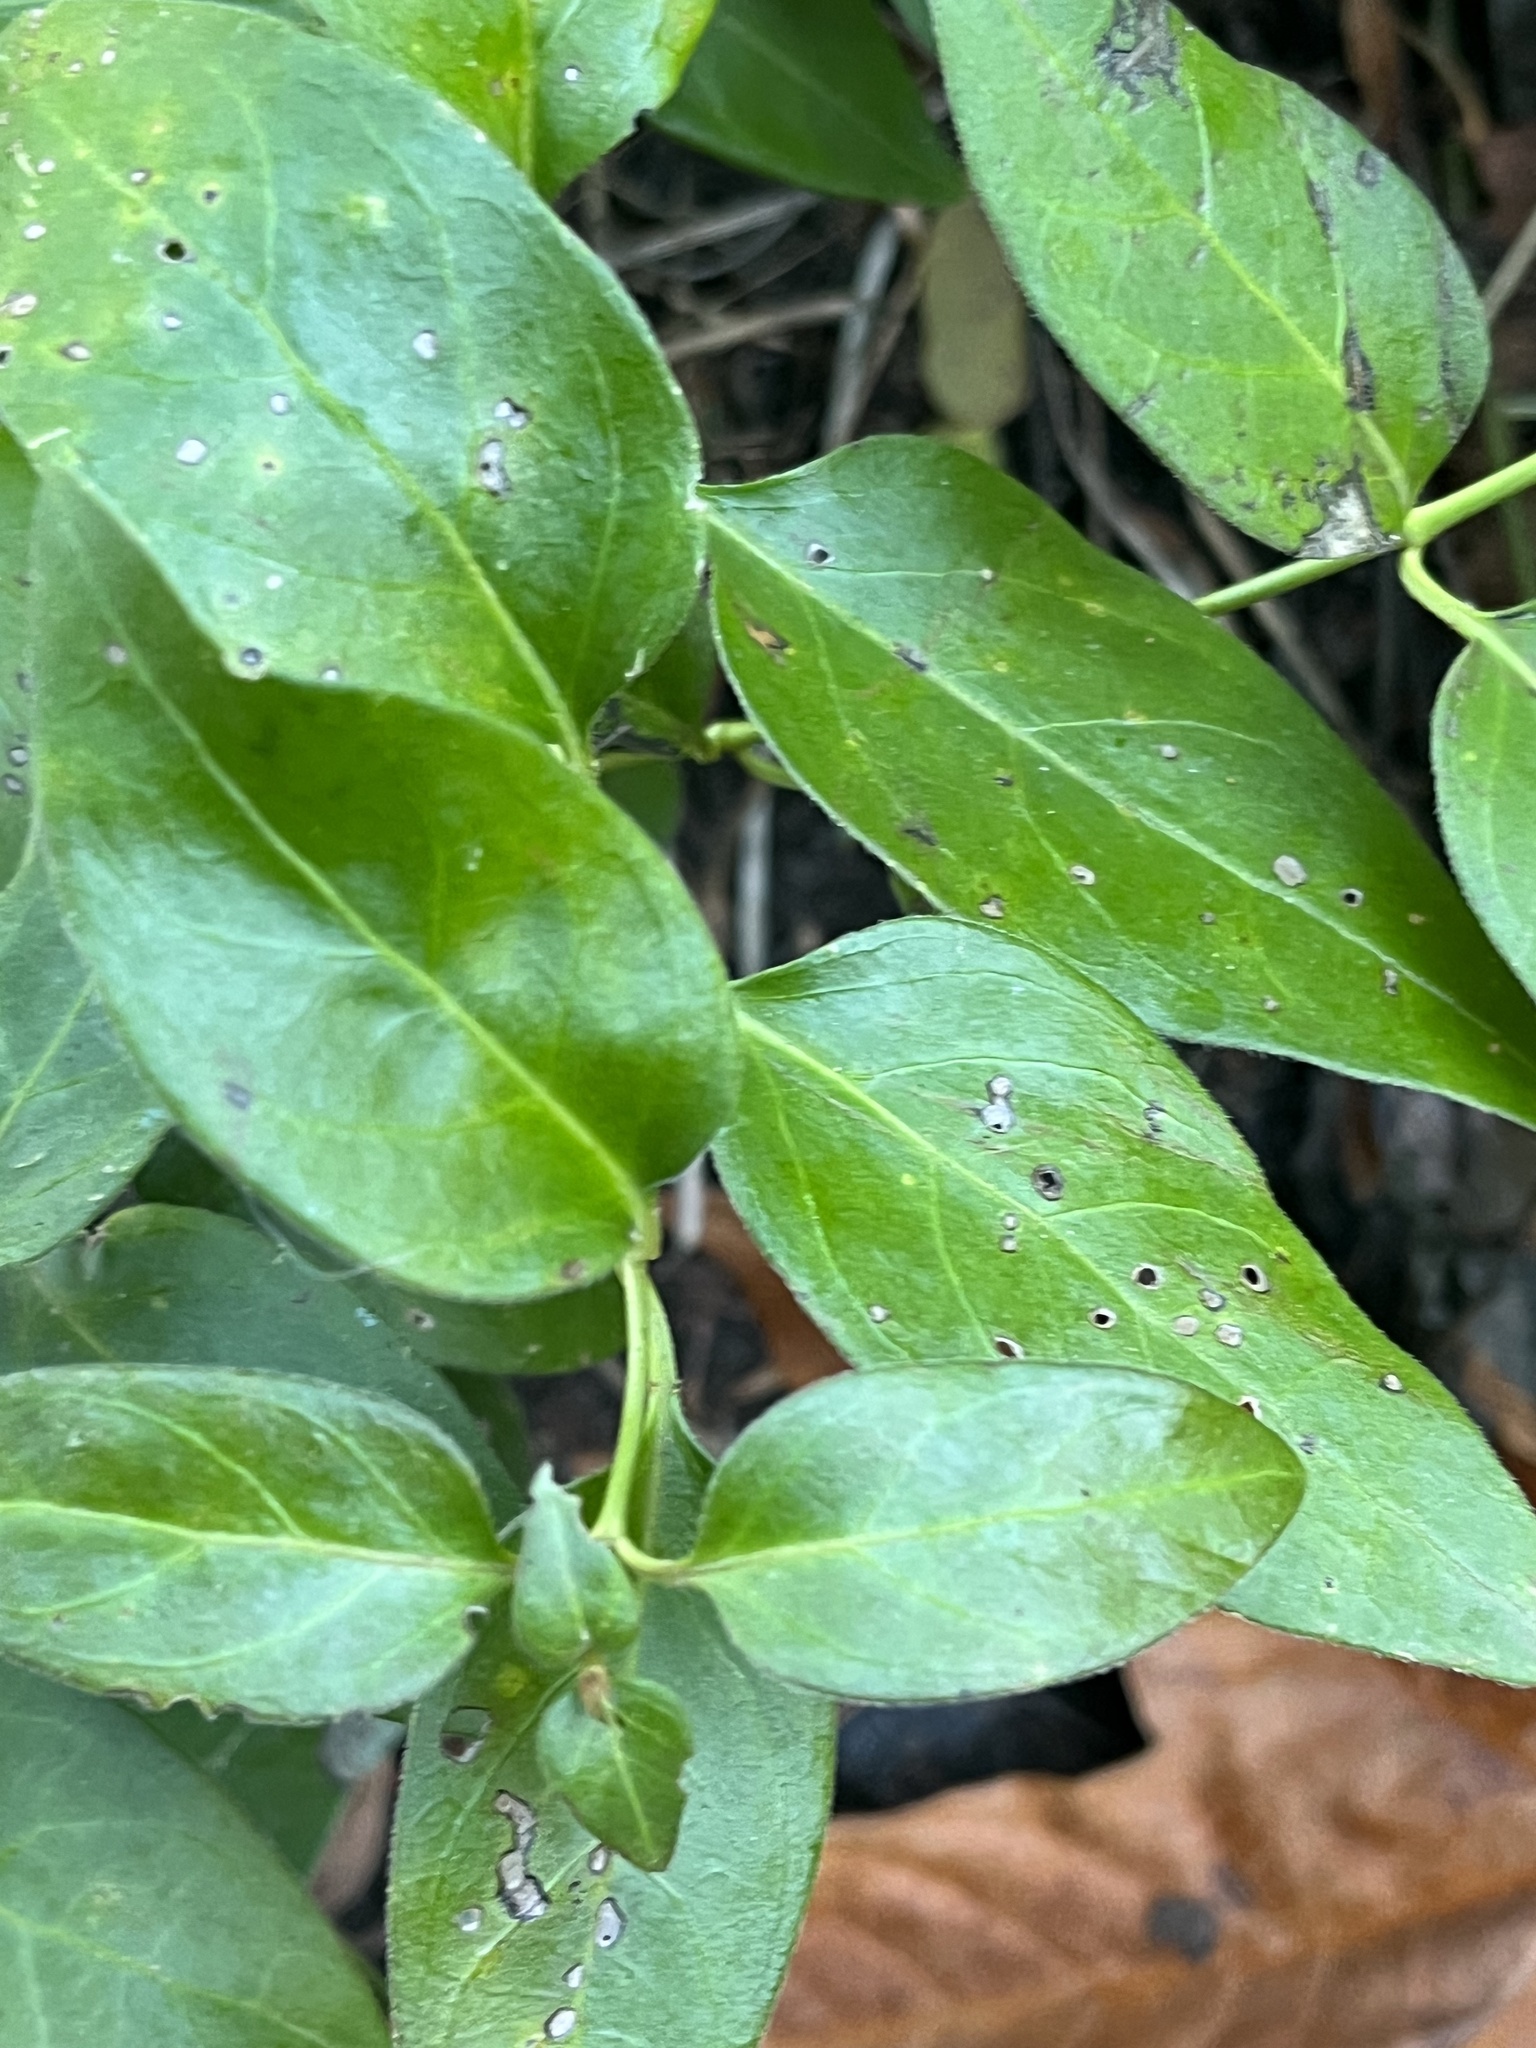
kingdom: Plantae
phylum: Tracheophyta
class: Magnoliopsida
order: Gentianales
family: Apocynaceae
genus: Vinca
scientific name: Vinca major
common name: Greater periwinkle
